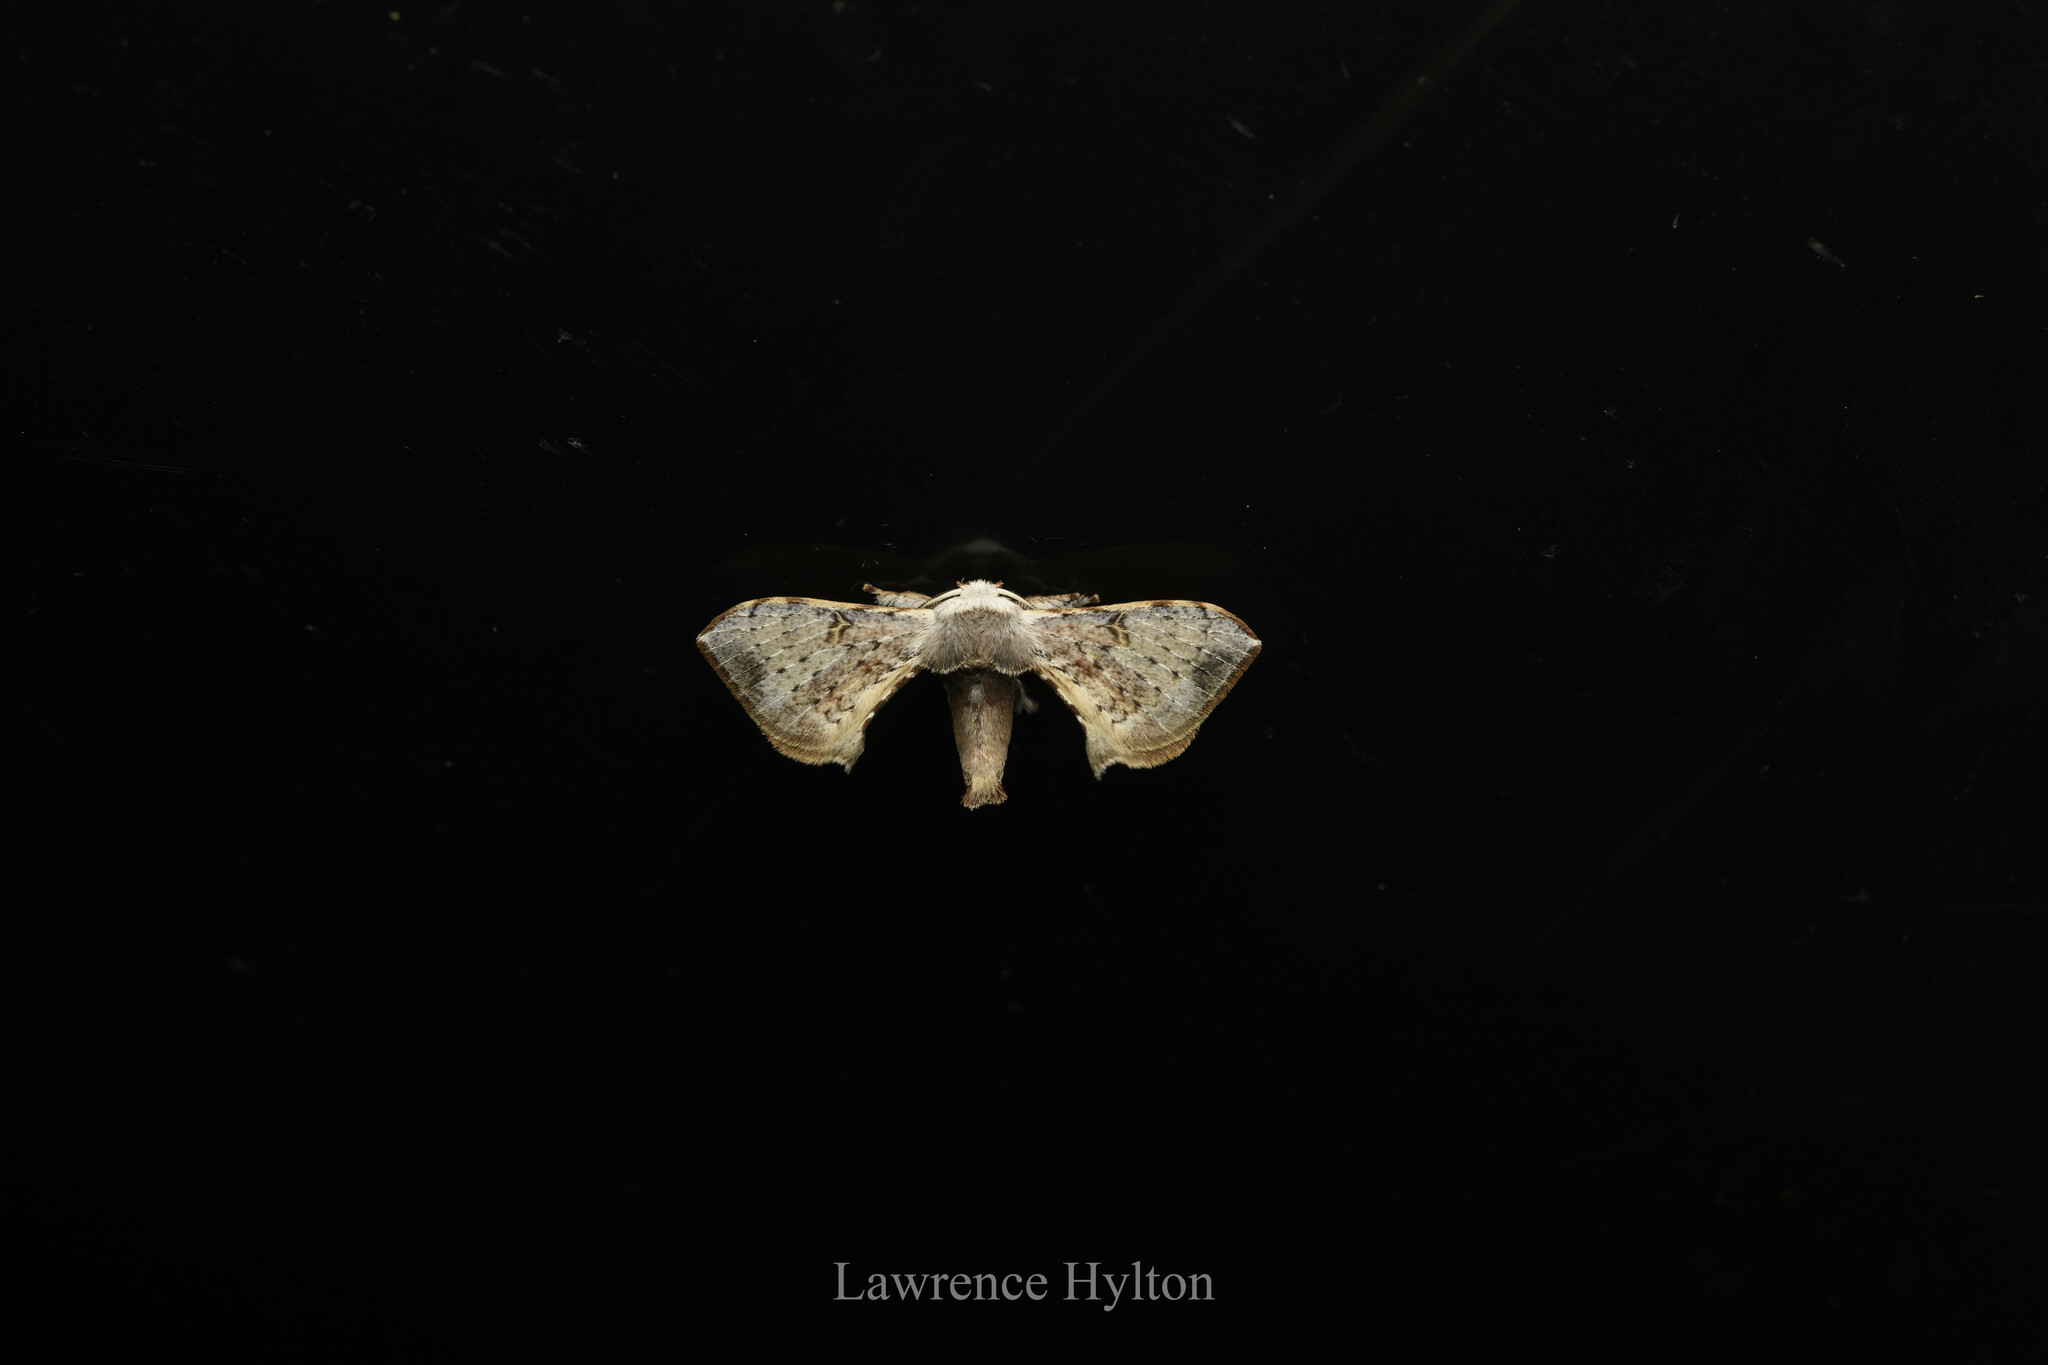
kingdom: Animalia
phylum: Arthropoda
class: Insecta
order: Lepidoptera
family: Bombycidae
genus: Ocinara
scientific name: Ocinara albicollis
